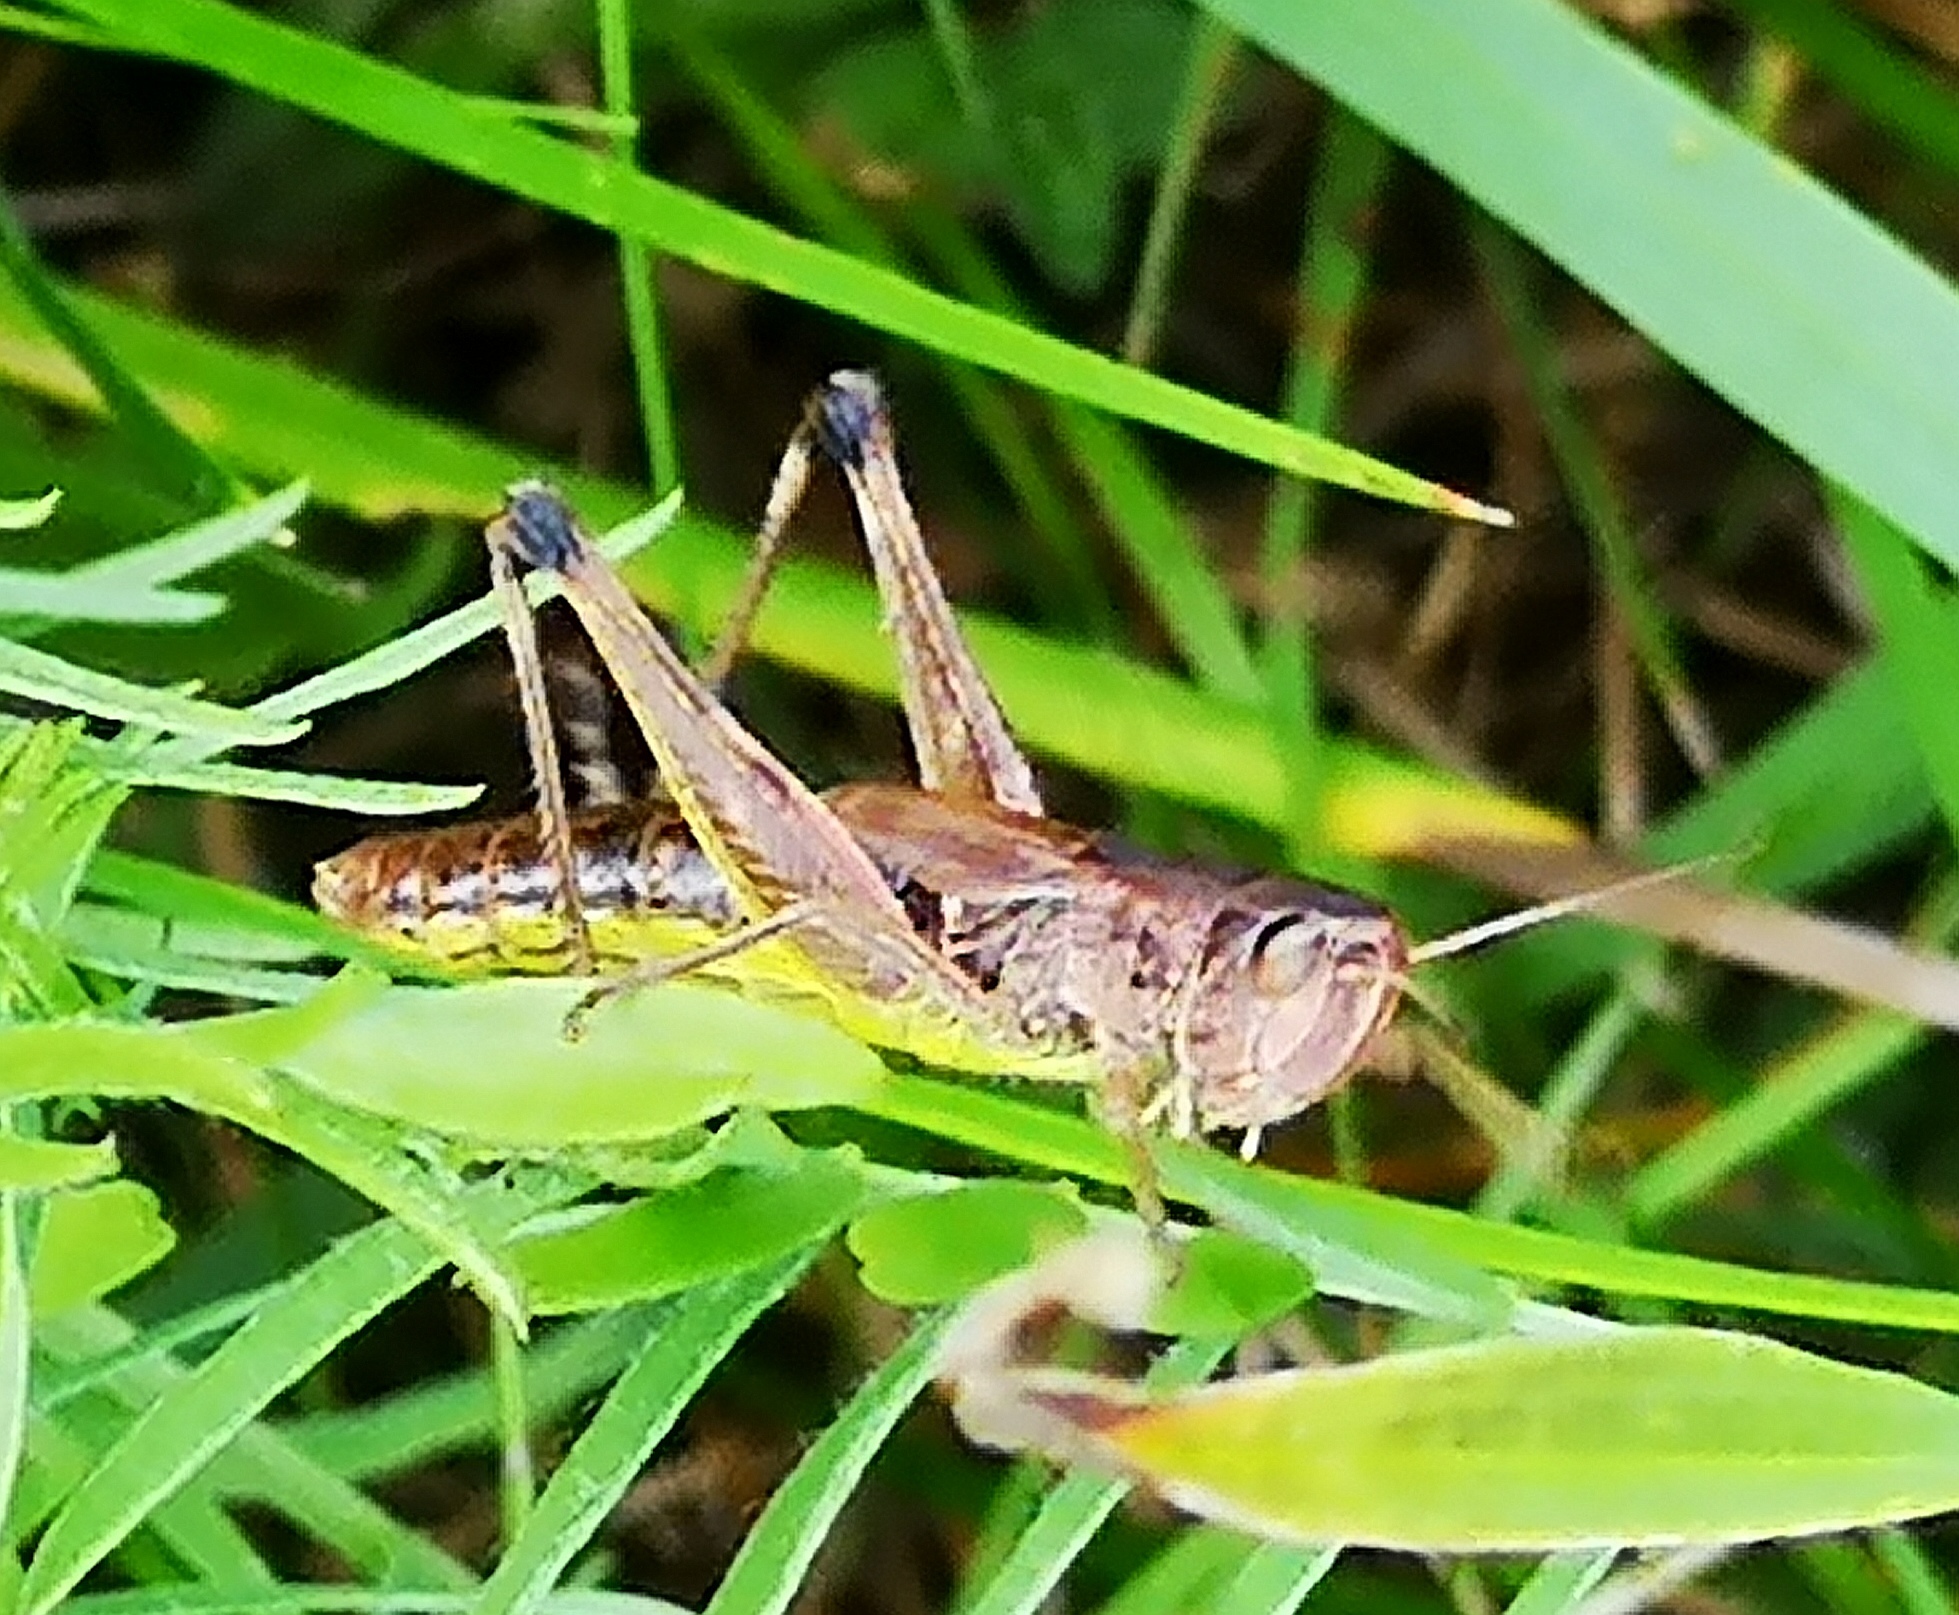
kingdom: Animalia
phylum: Arthropoda
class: Insecta
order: Orthoptera
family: Acrididae
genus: Pseudochorthippus
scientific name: Pseudochorthippus parallelus
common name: Meadow grasshopper
